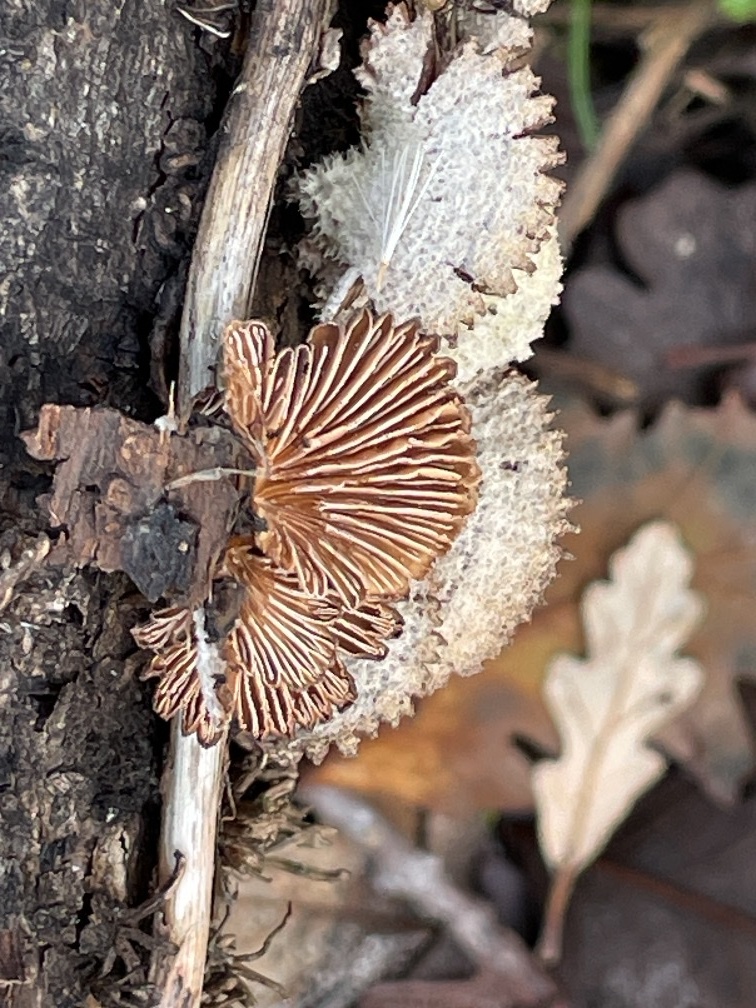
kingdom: Fungi
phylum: Basidiomycota
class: Agaricomycetes
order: Agaricales
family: Schizophyllaceae
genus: Schizophyllum
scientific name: Schizophyllum commune
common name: Common porecrust
